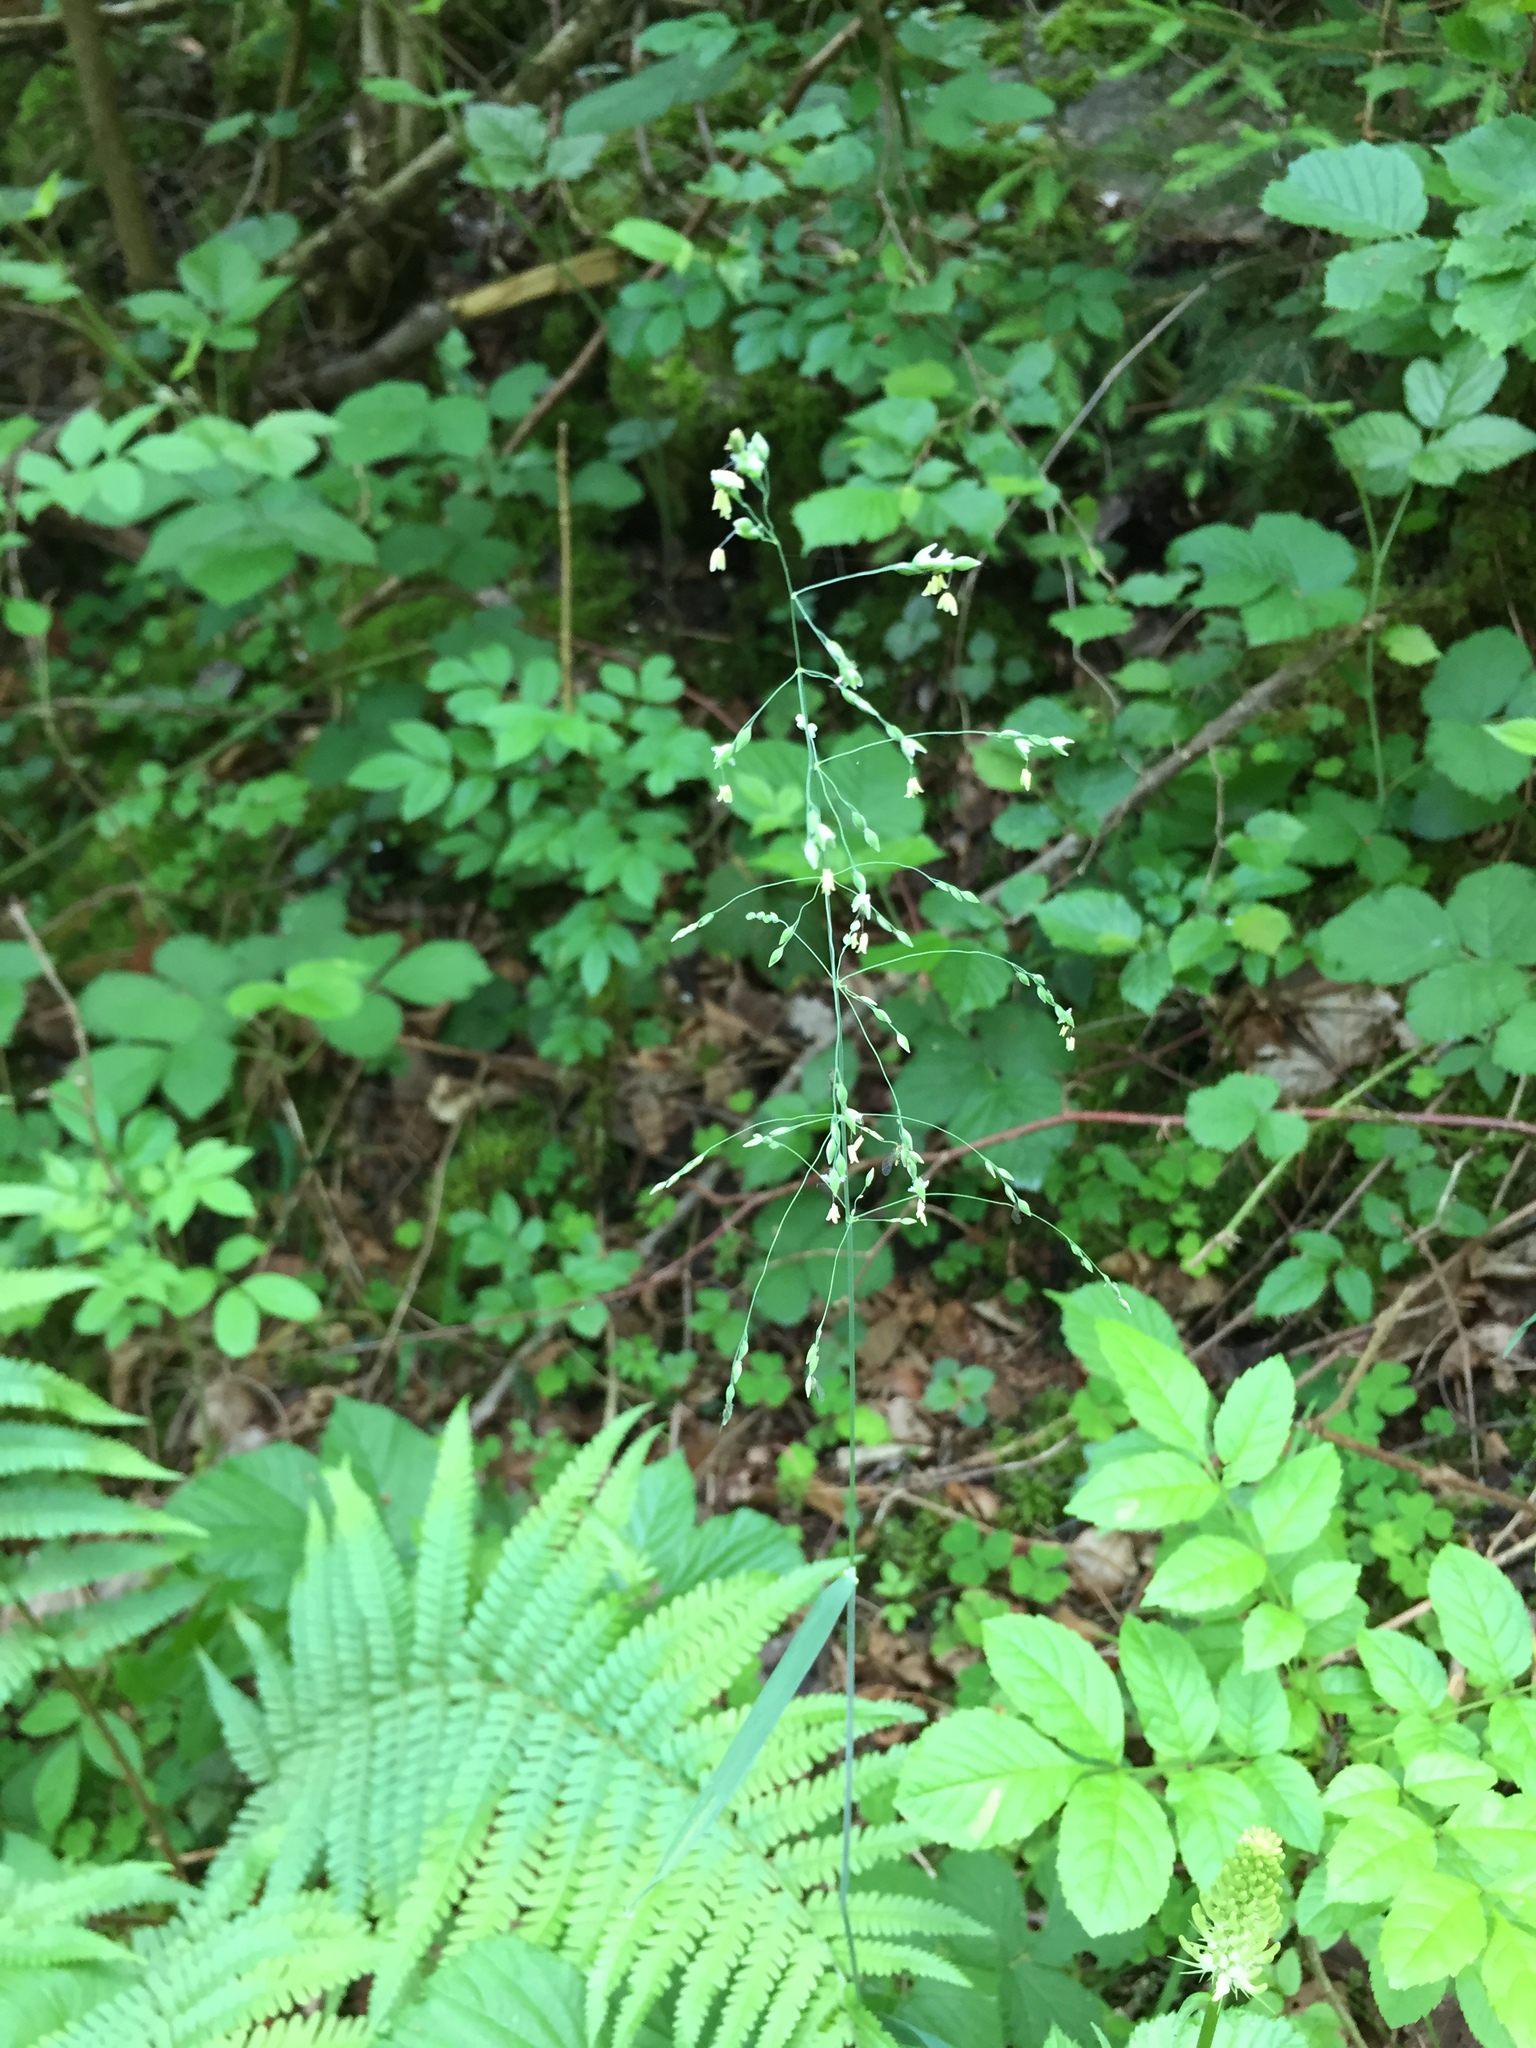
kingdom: Plantae
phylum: Tracheophyta
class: Liliopsida
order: Poales
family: Poaceae
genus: Milium
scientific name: Milium effusum
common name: Wood millet
